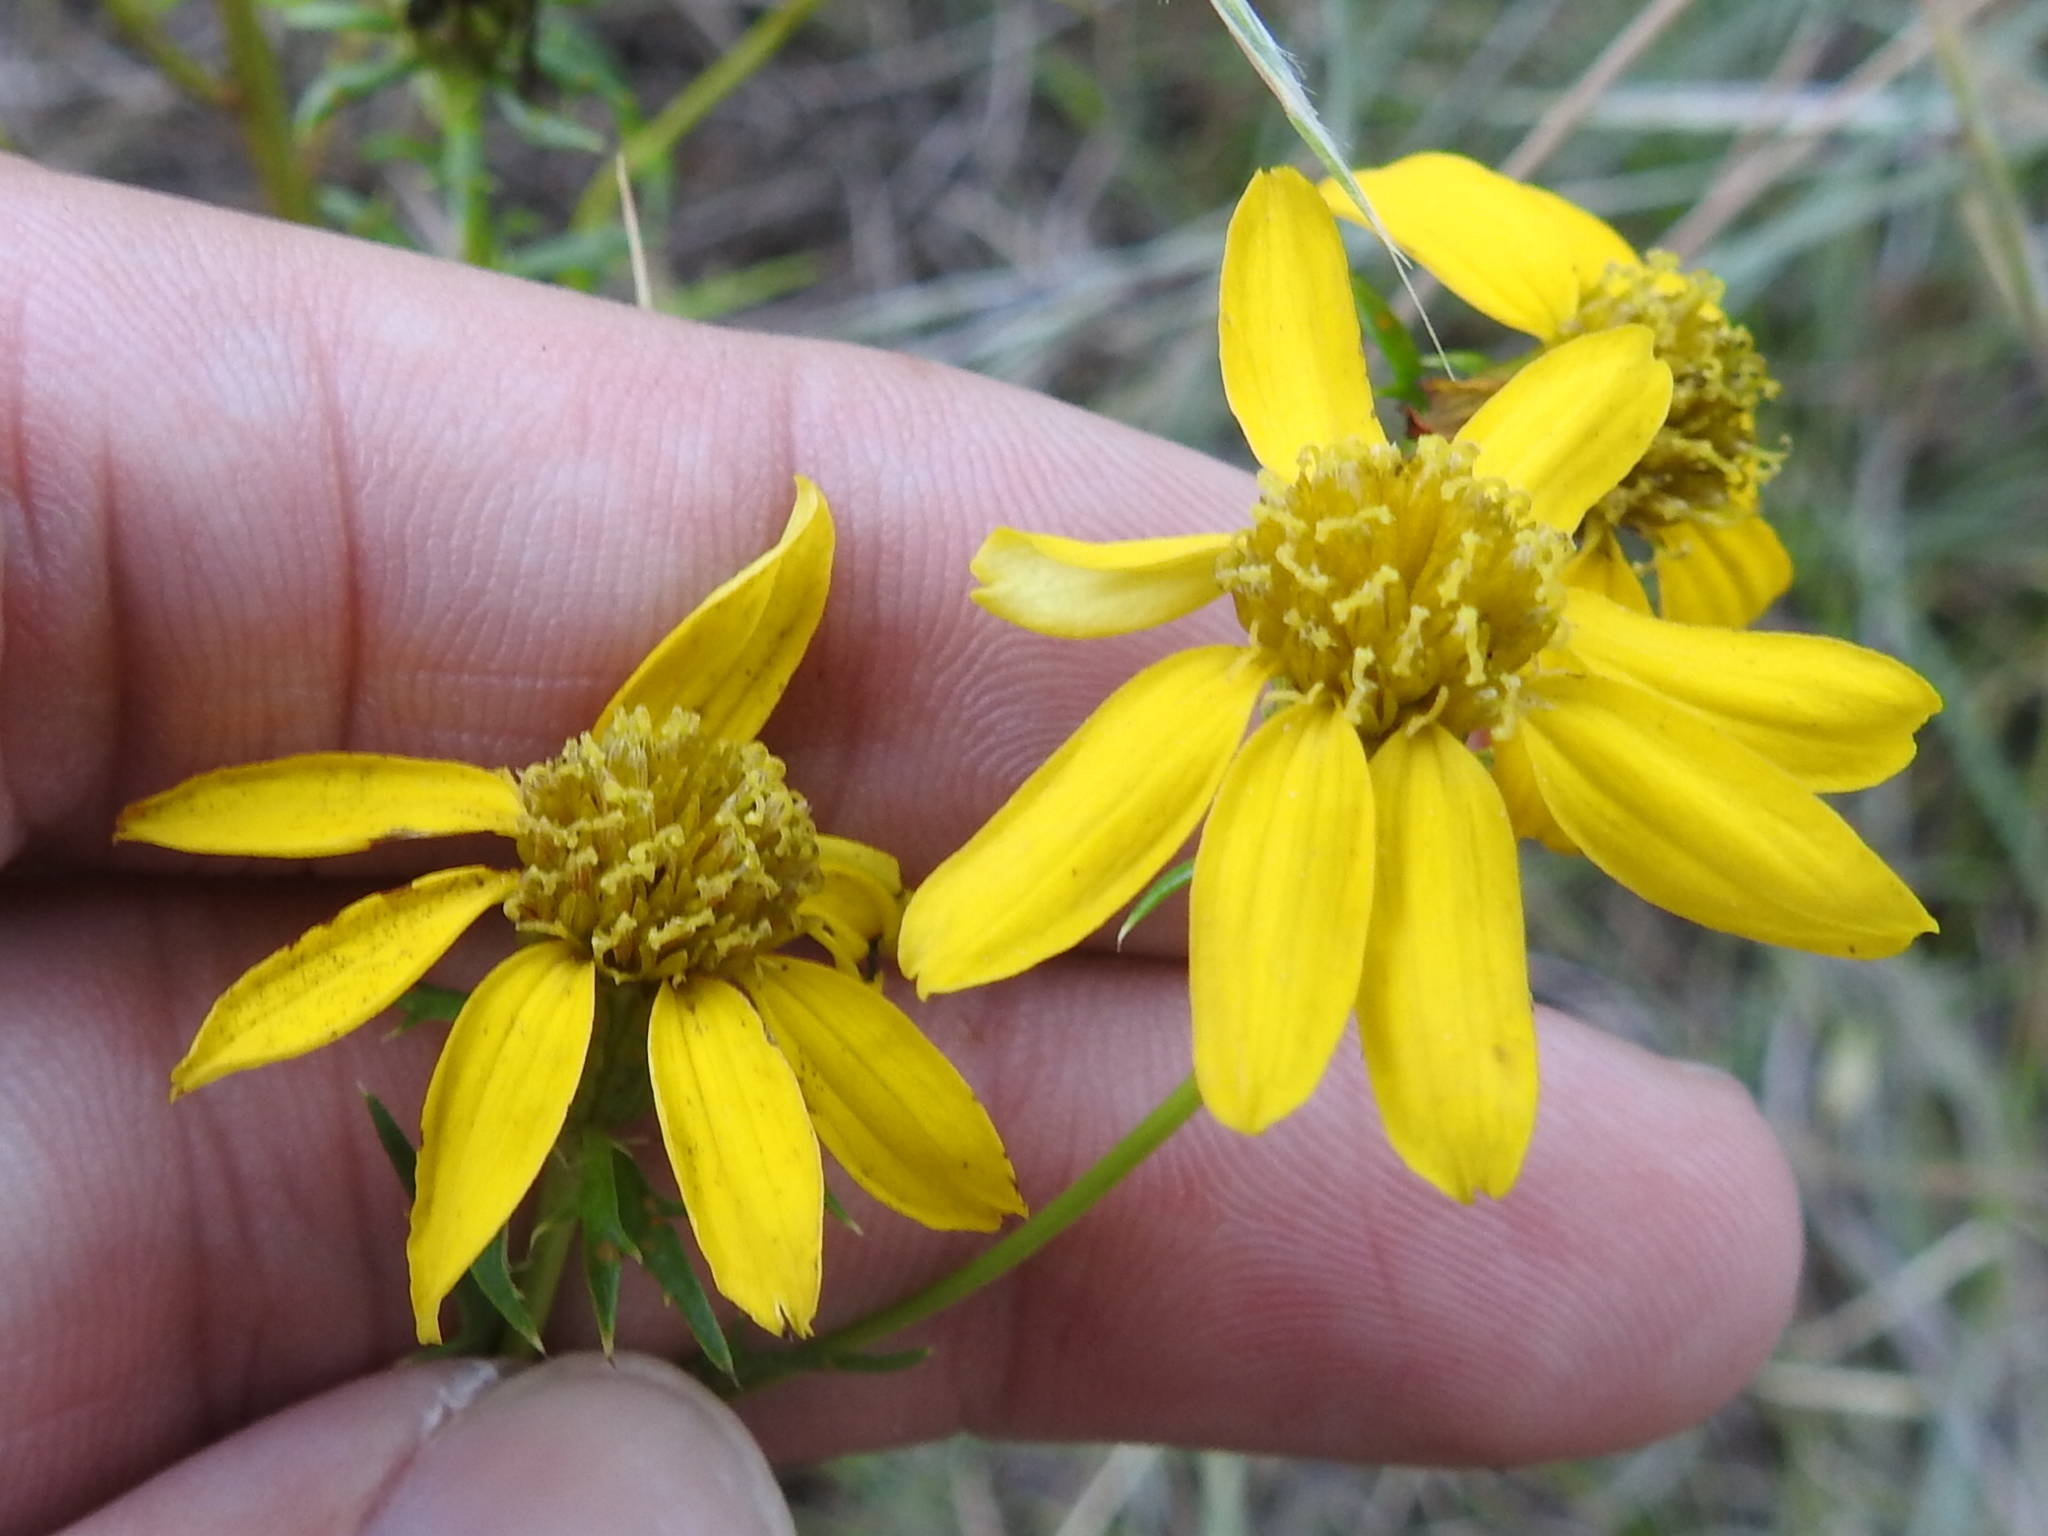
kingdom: Plantae
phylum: Tracheophyta
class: Magnoliopsida
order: Asterales
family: Asteraceae
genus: Dysodiopsis
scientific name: Dysodiopsis tagetoides
